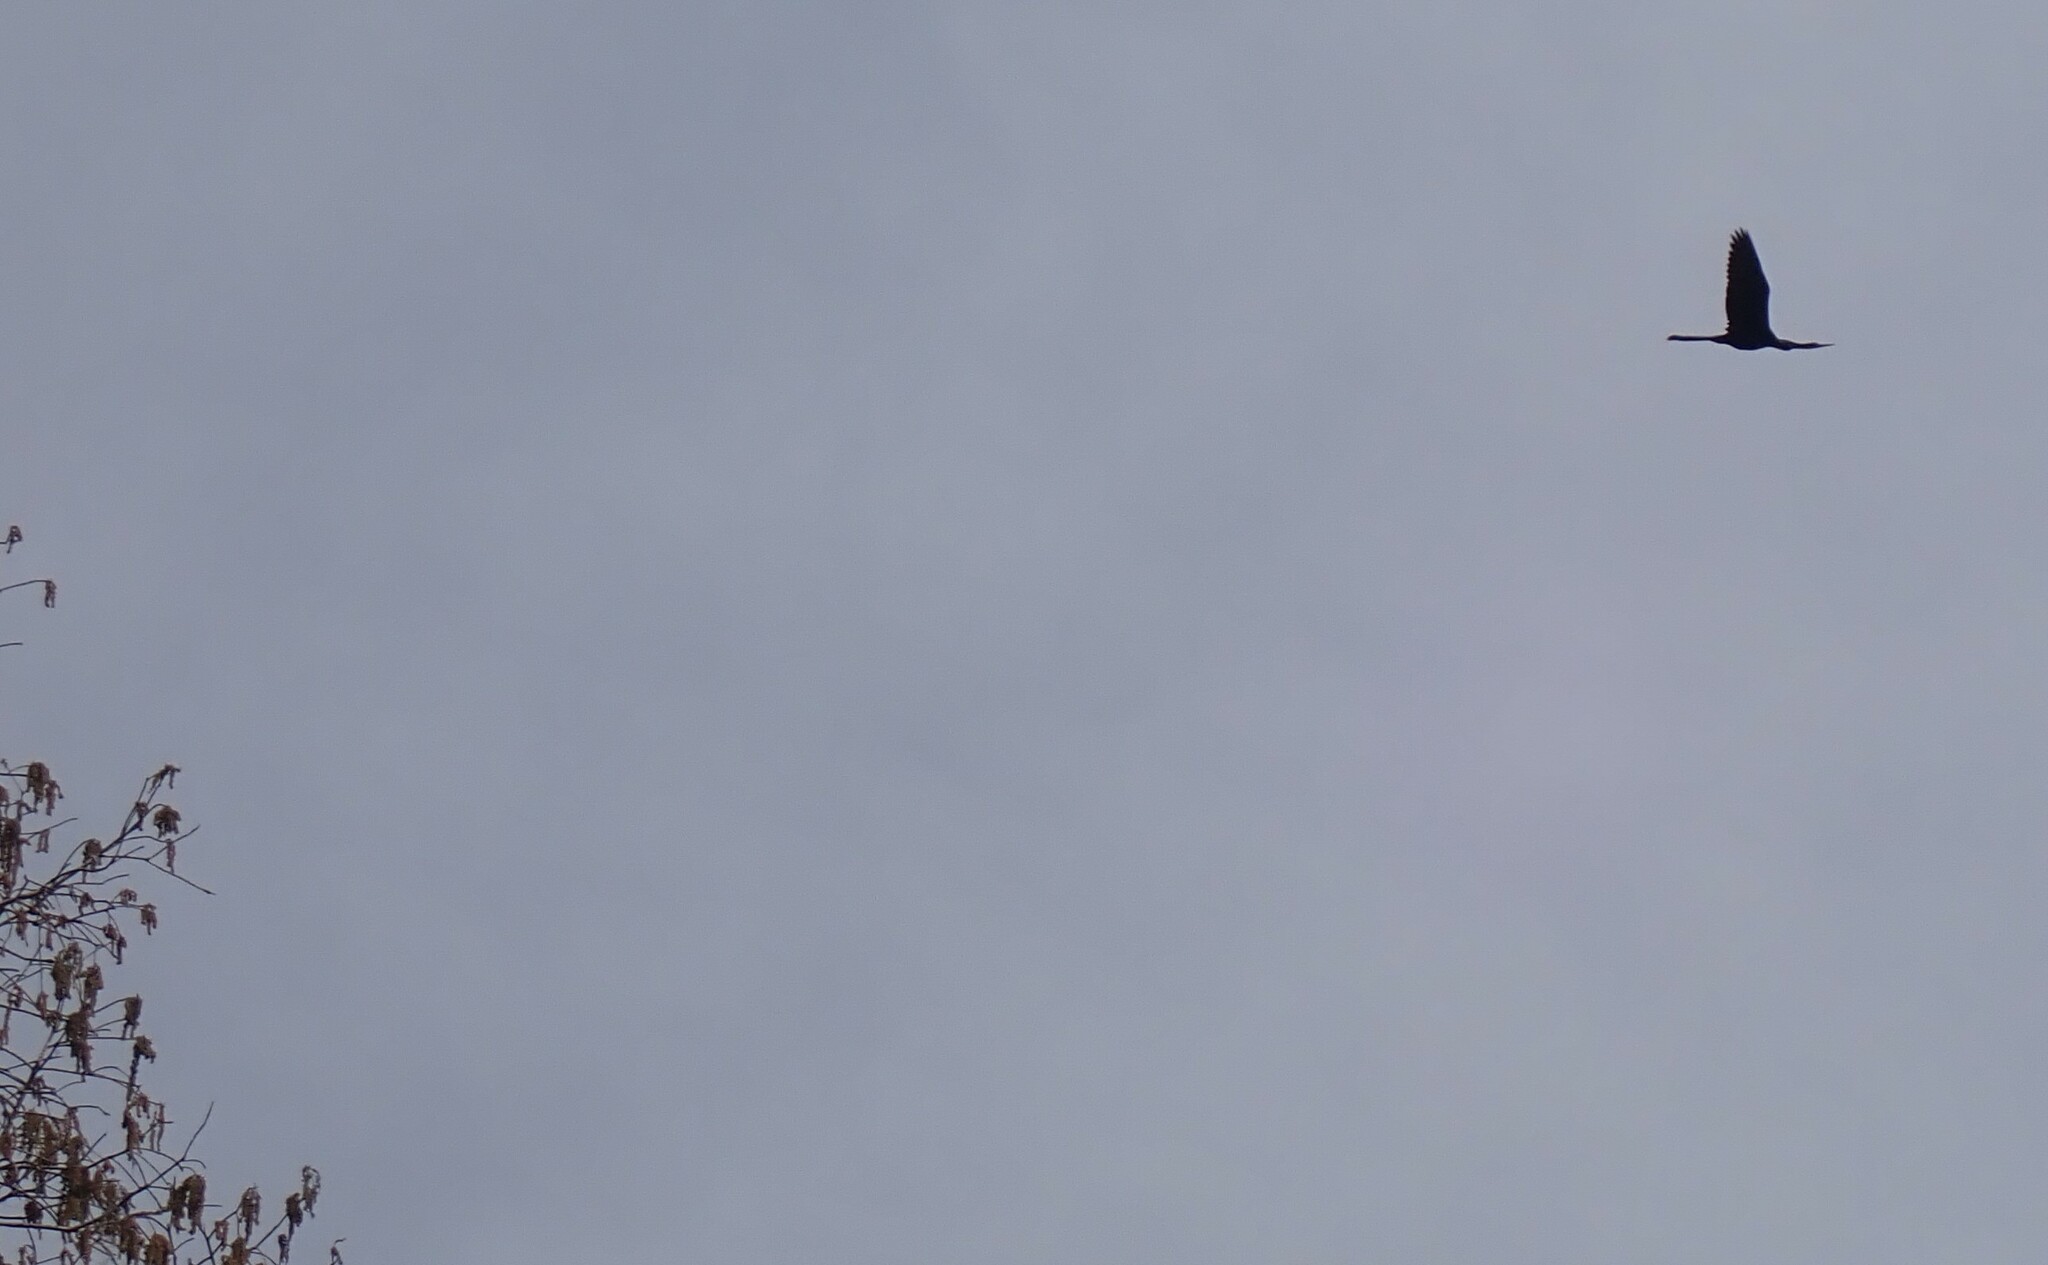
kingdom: Animalia
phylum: Chordata
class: Aves
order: Suliformes
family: Anhingidae
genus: Anhinga
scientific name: Anhinga anhinga
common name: Anhinga
